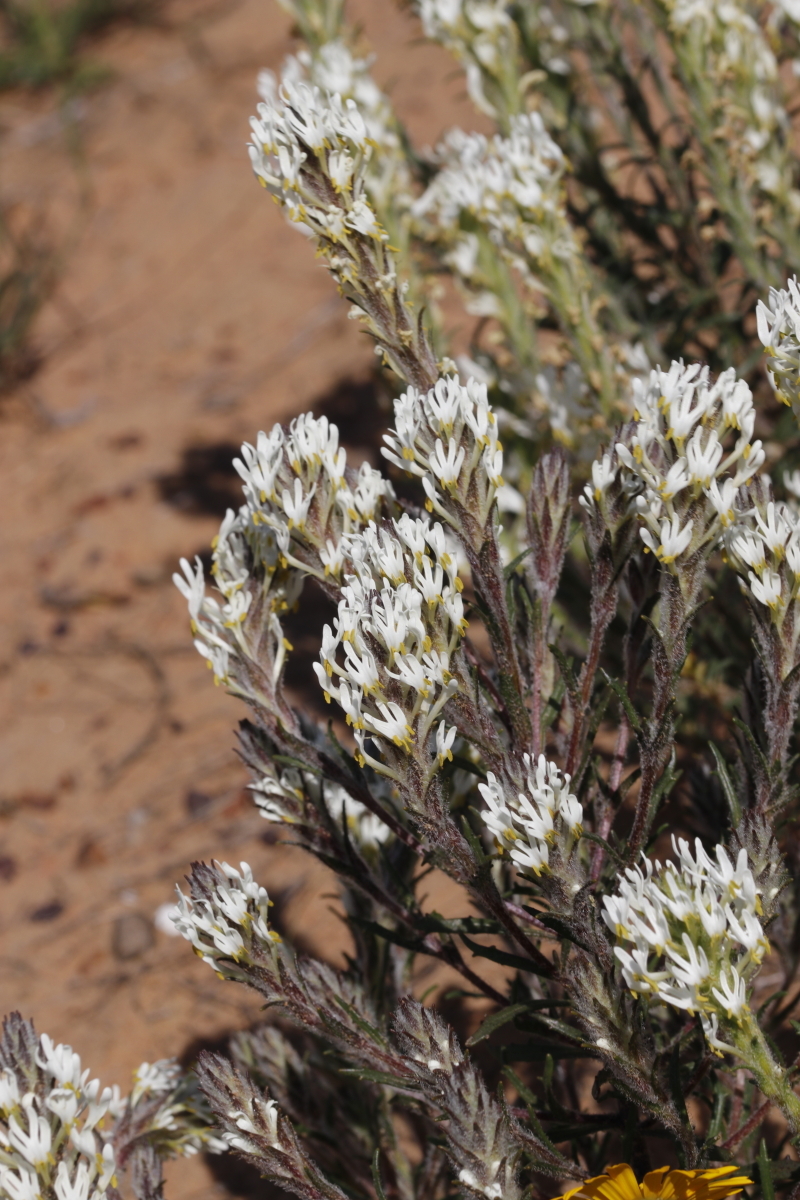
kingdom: Plantae
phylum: Tracheophyta
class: Magnoliopsida
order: Lamiales
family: Scrophulariaceae
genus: Dischisma
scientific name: Dischisma ciliatum
